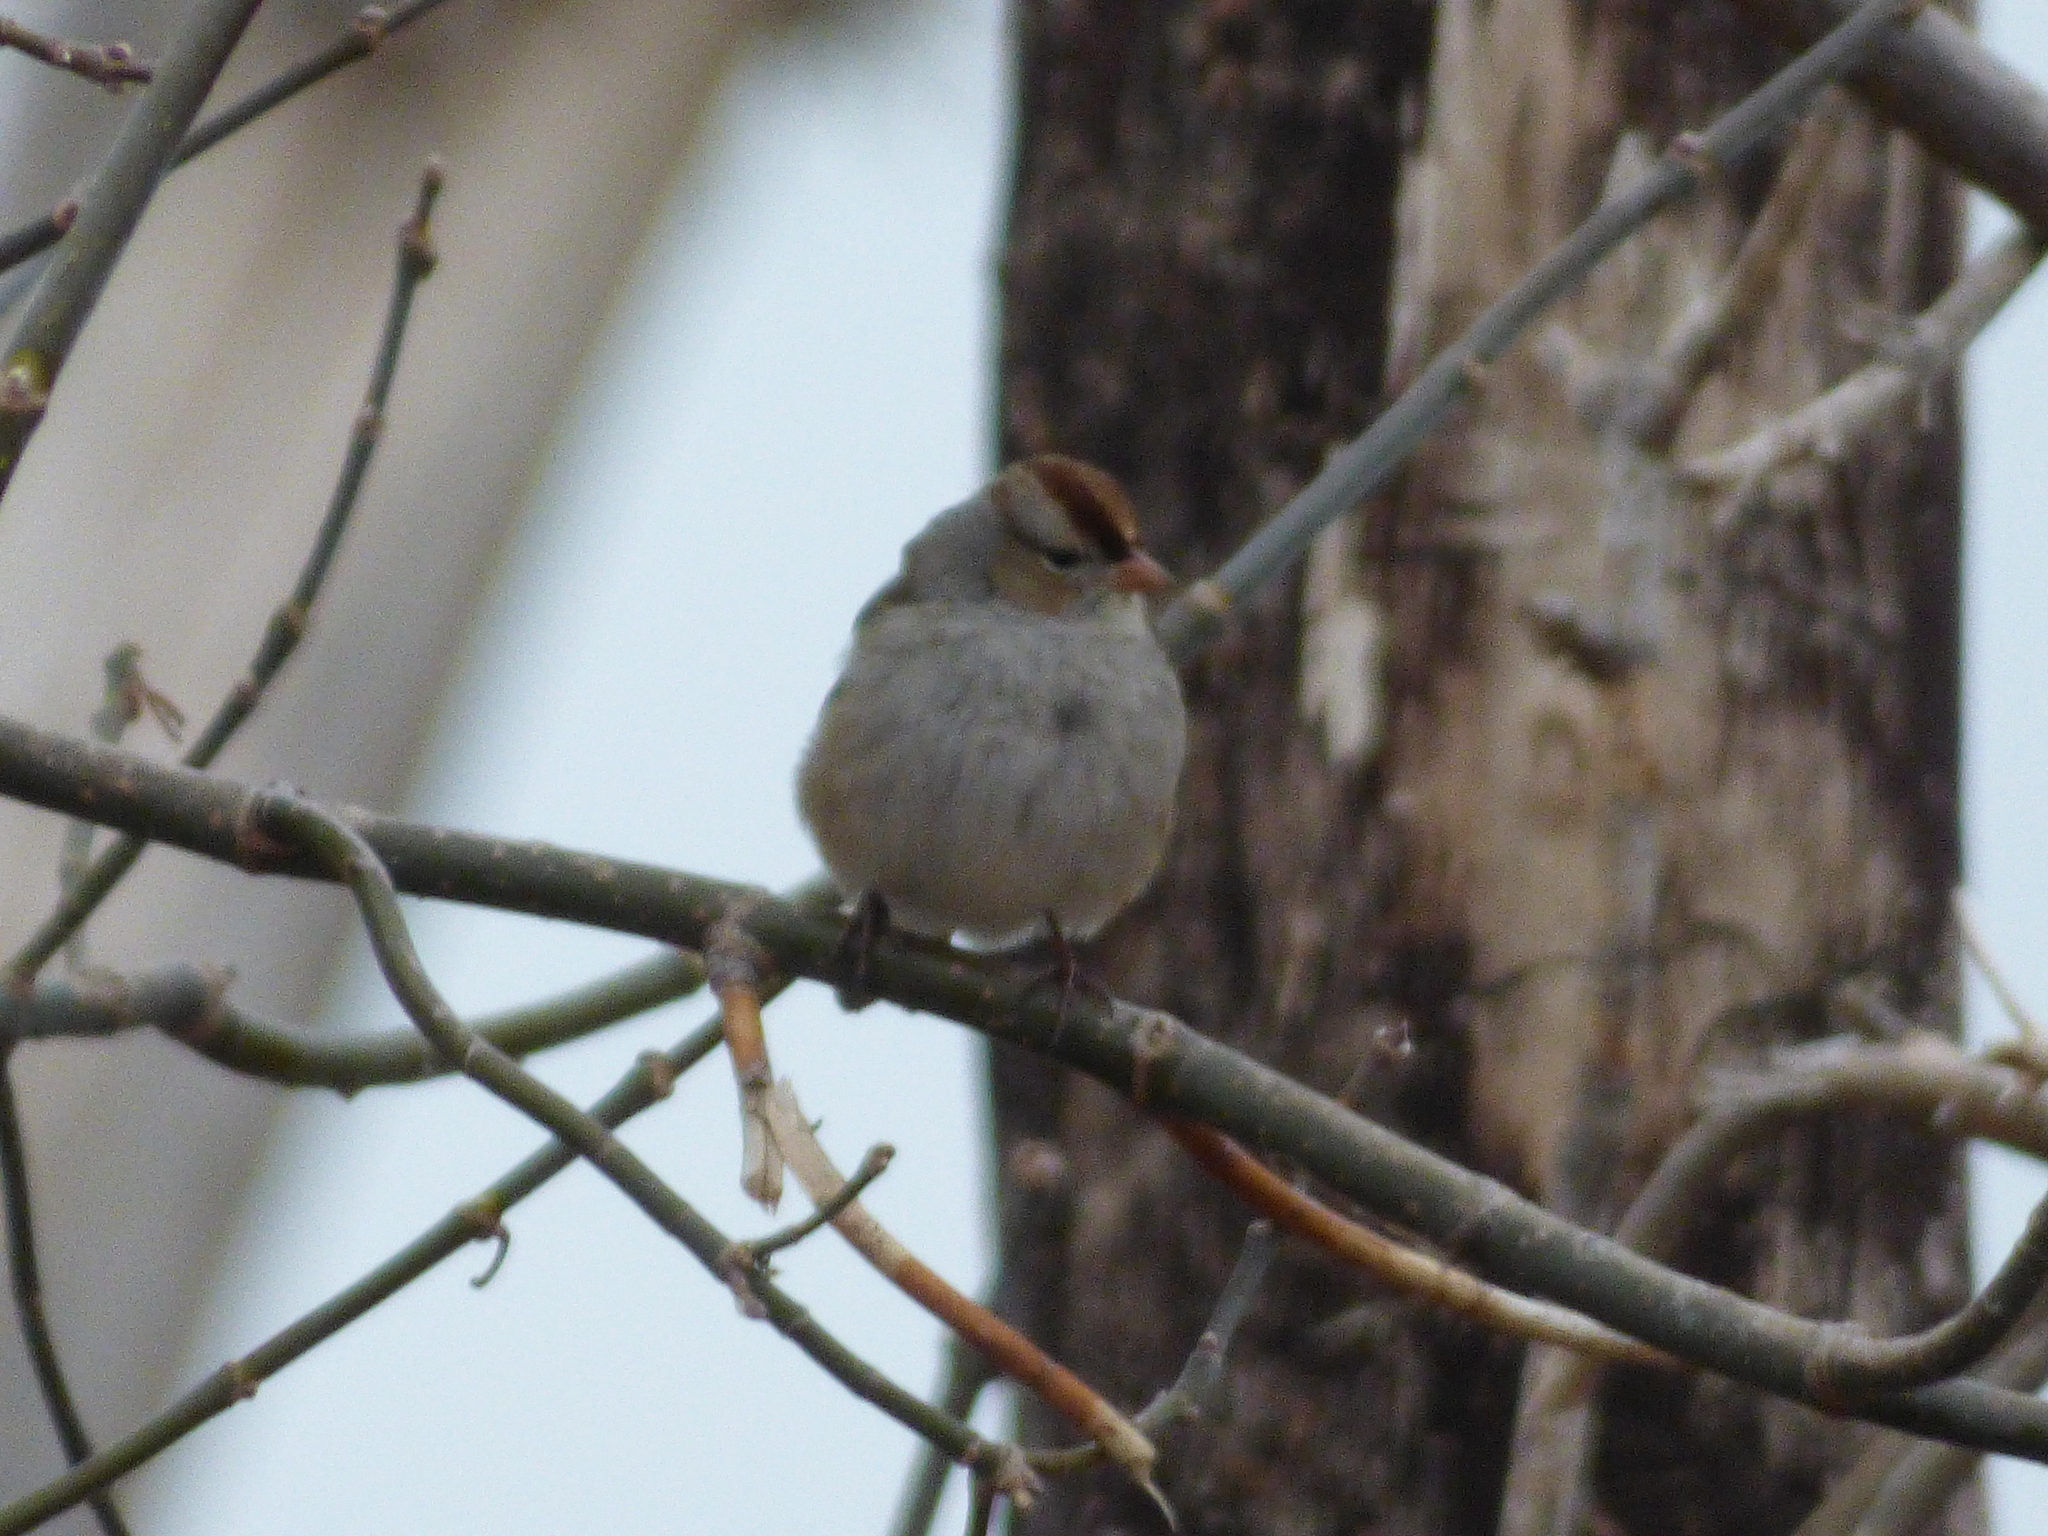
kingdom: Animalia
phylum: Chordata
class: Aves
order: Passeriformes
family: Passerellidae
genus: Zonotrichia
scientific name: Zonotrichia leucophrys
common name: White-crowned sparrow
